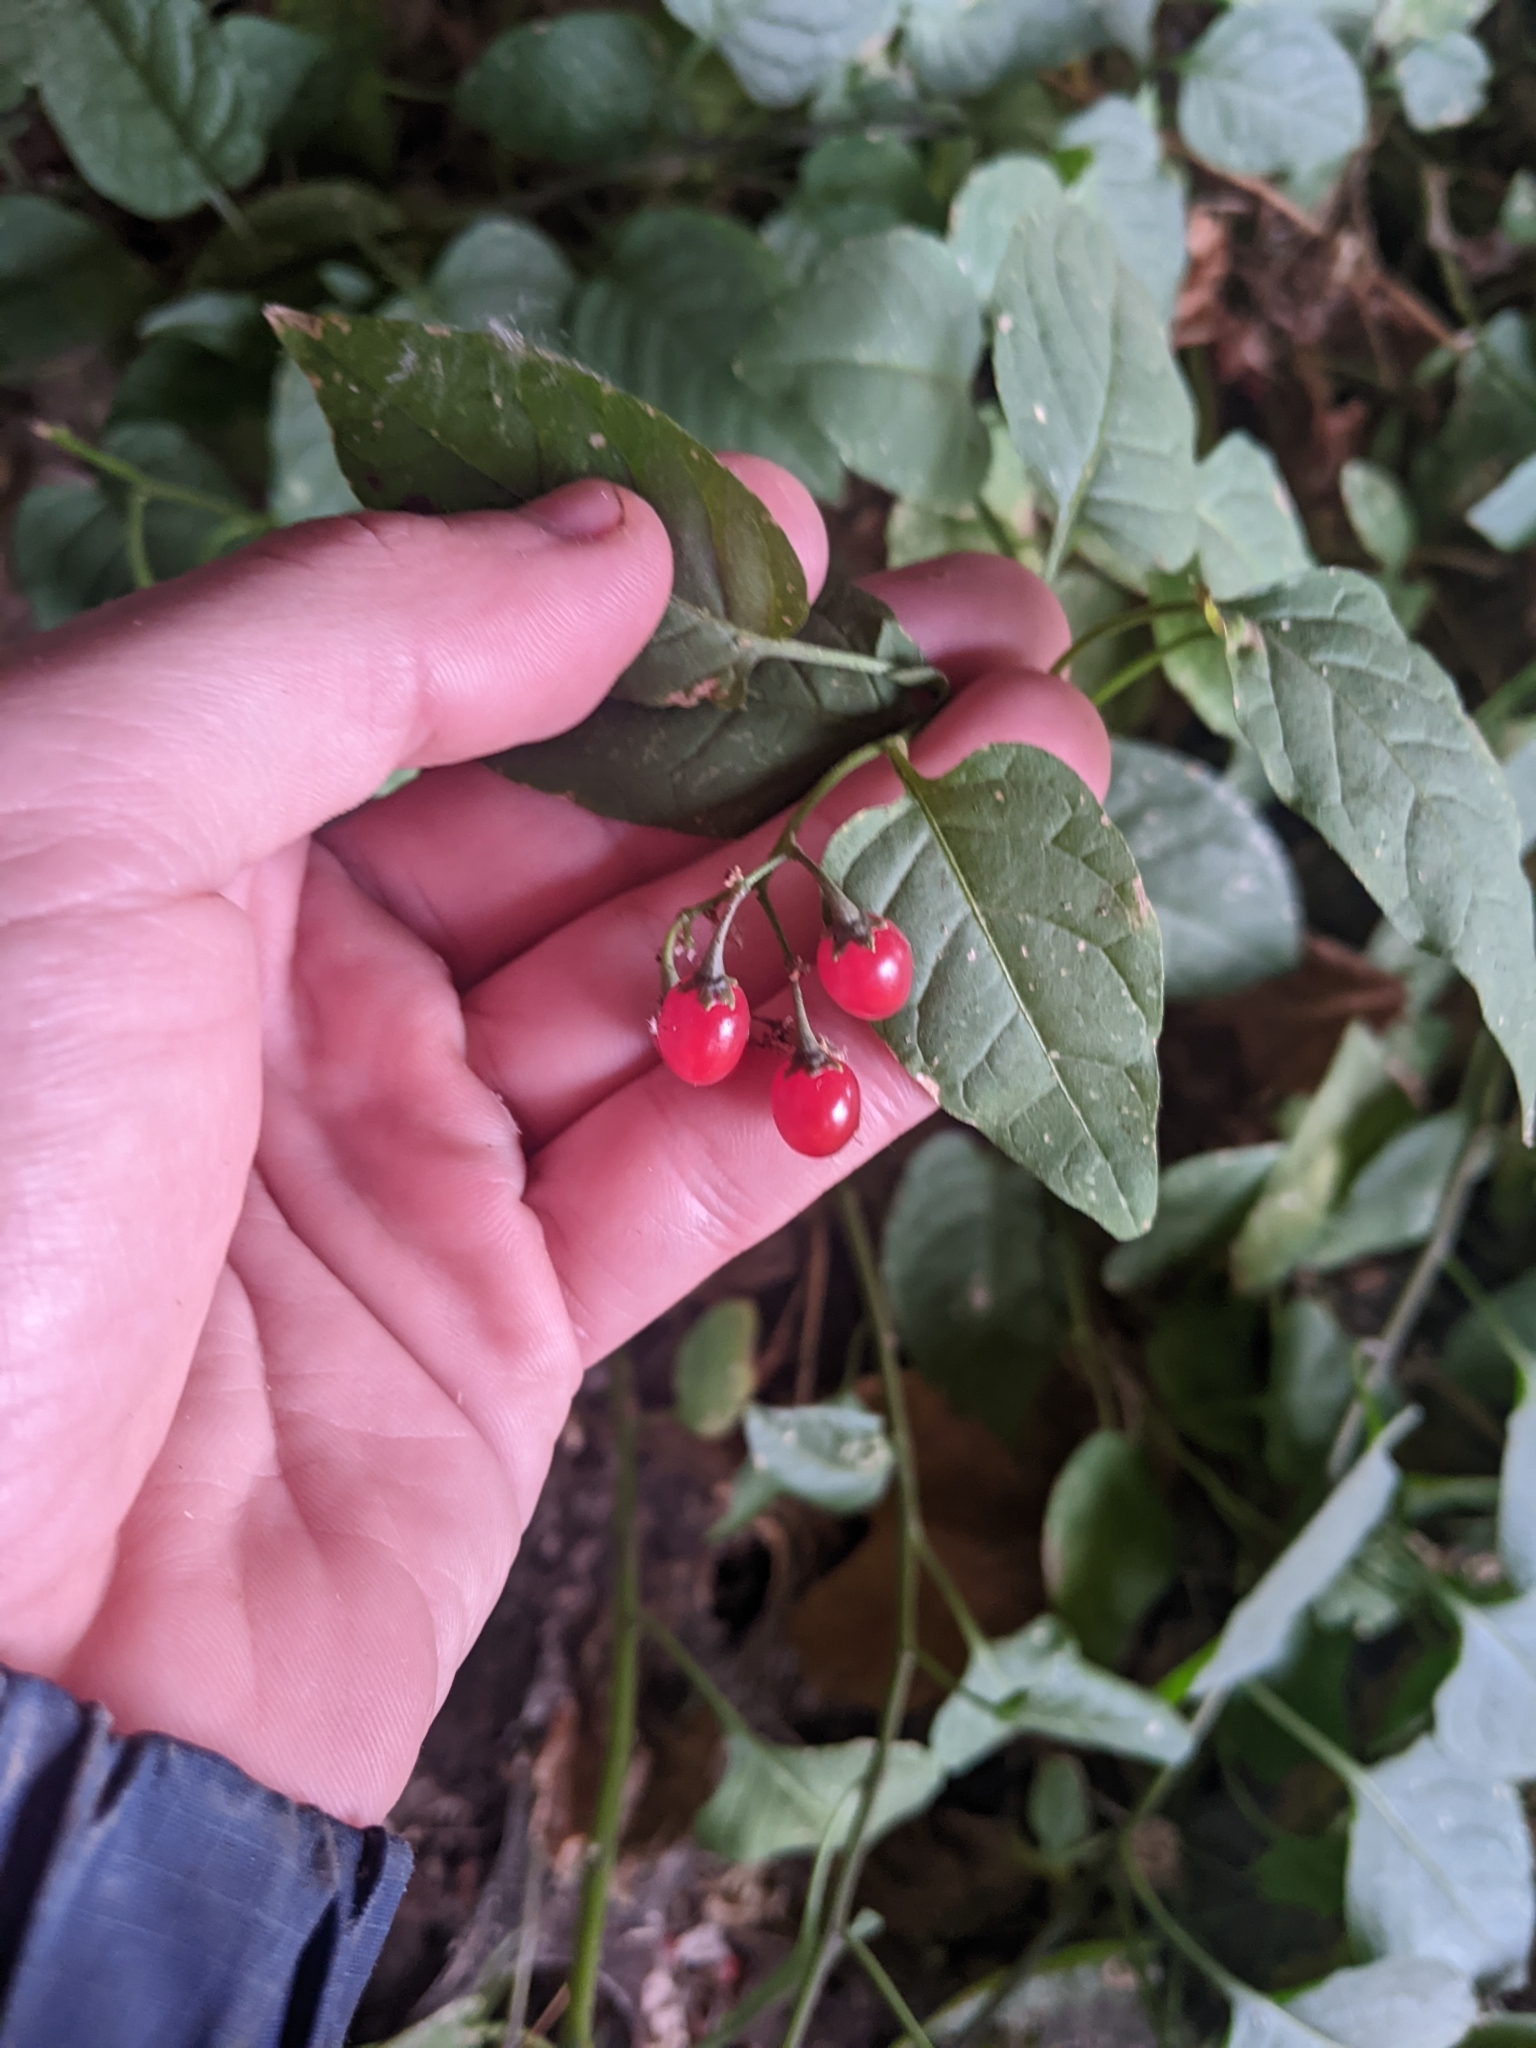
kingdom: Plantae
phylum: Tracheophyta
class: Magnoliopsida
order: Solanales
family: Solanaceae
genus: Solanum
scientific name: Solanum dulcamara
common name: Climbing nightshade
